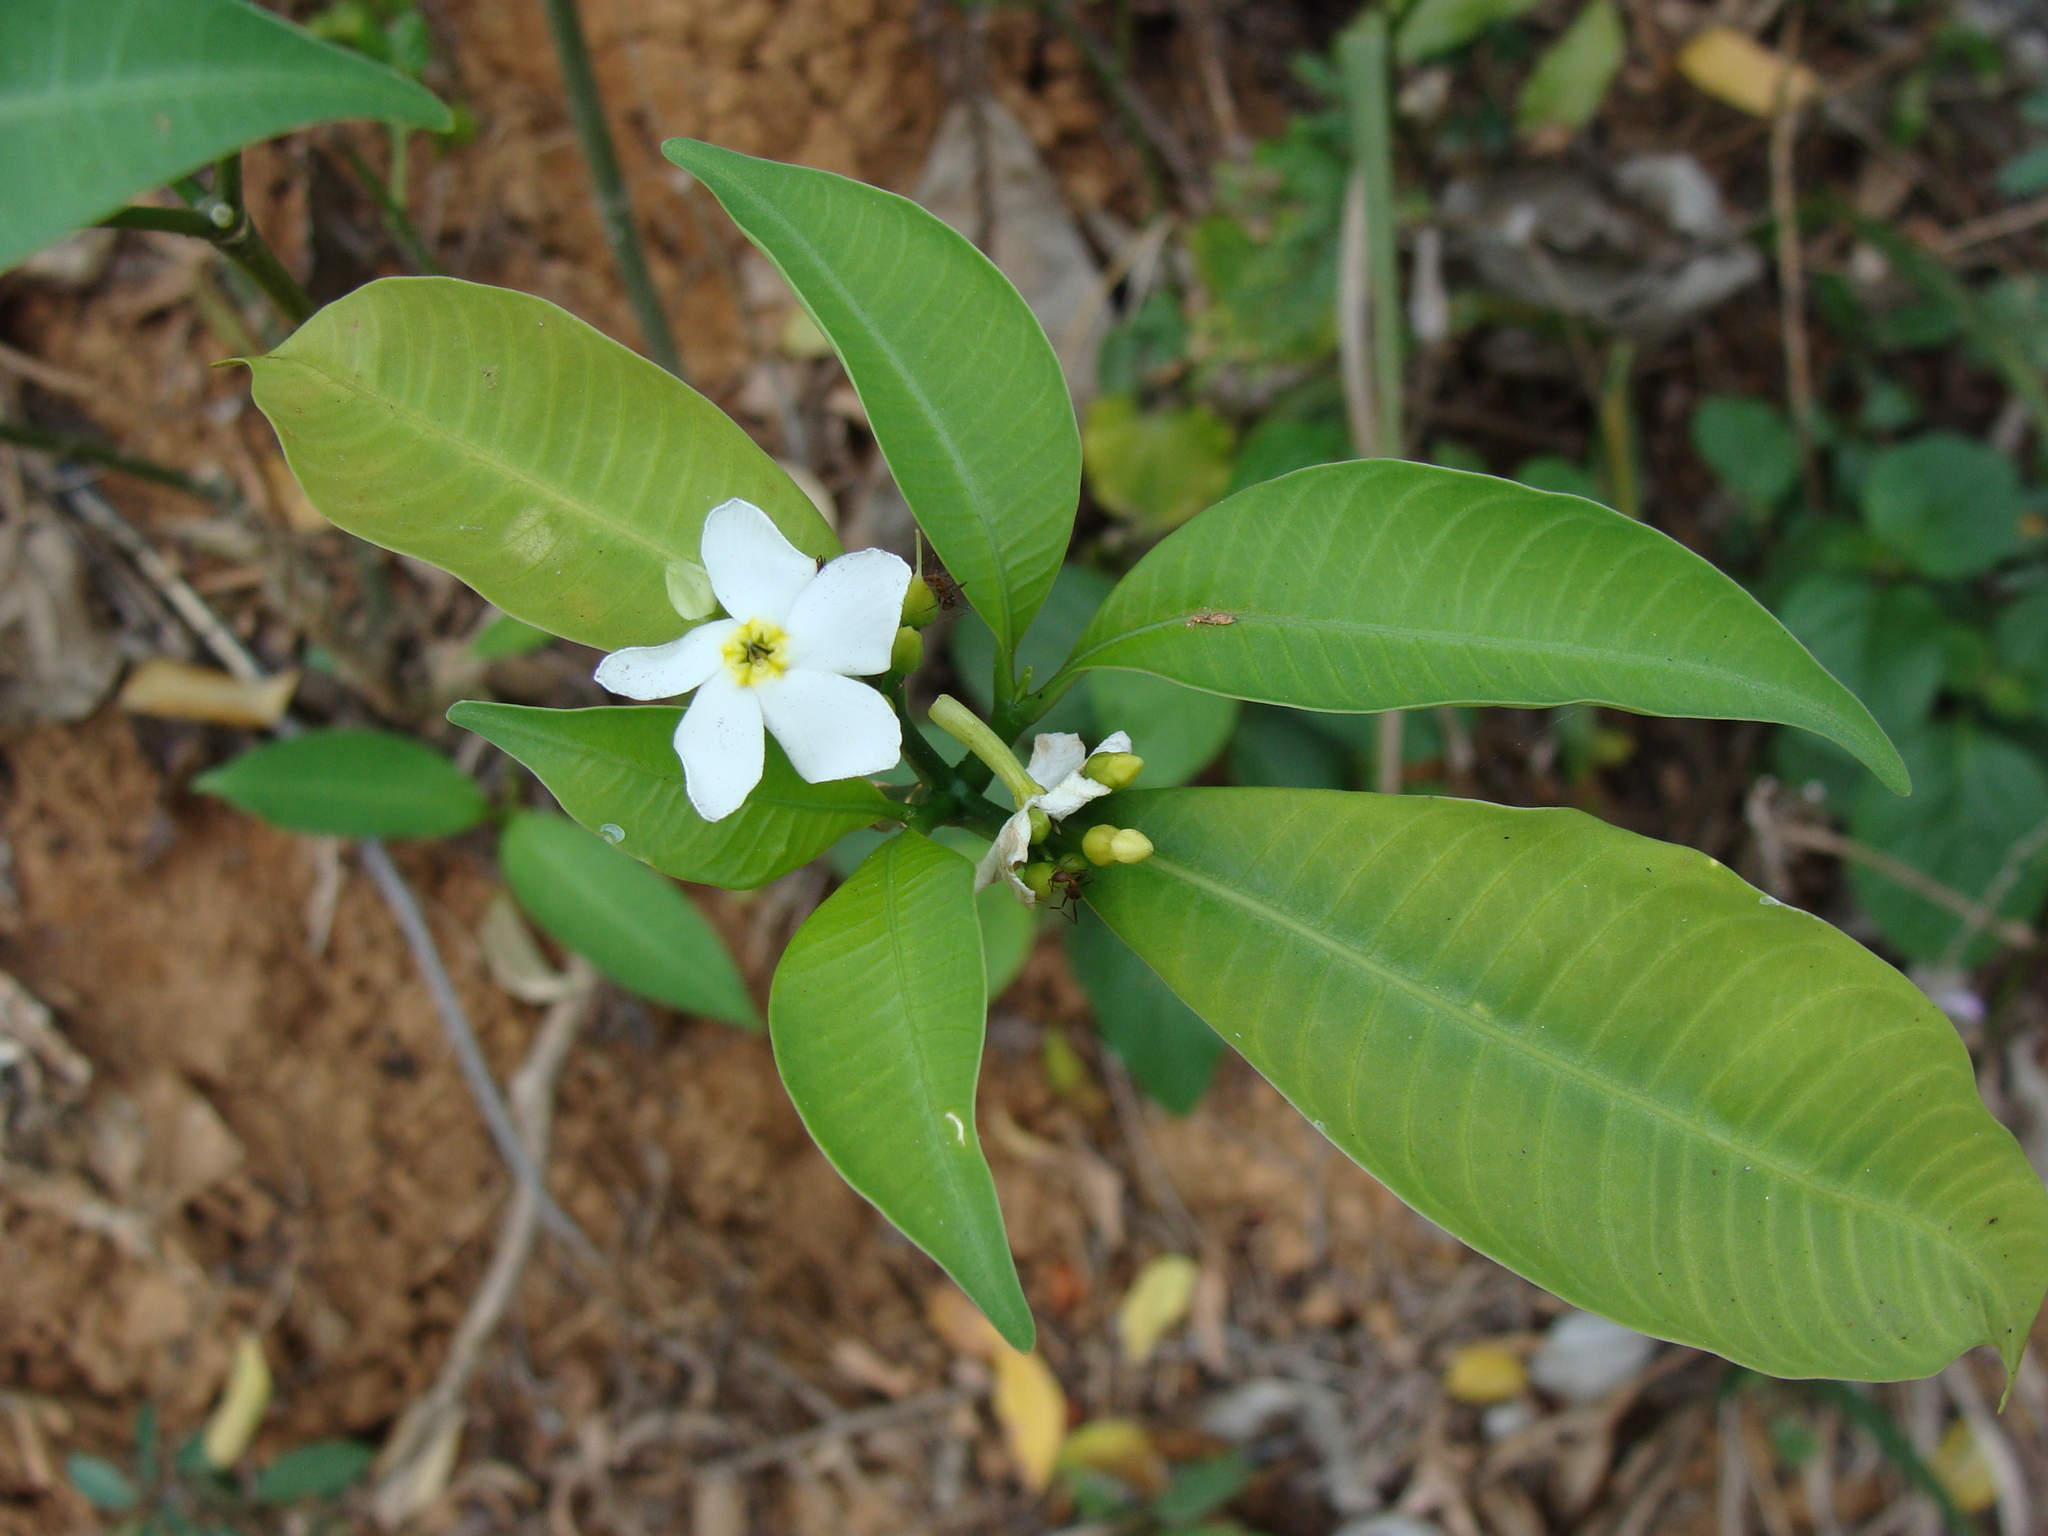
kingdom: Plantae
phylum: Tracheophyta
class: Magnoliopsida
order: Gentianales
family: Apocynaceae
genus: Tabernaemontana
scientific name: Tabernaemontana amygdalifolia
